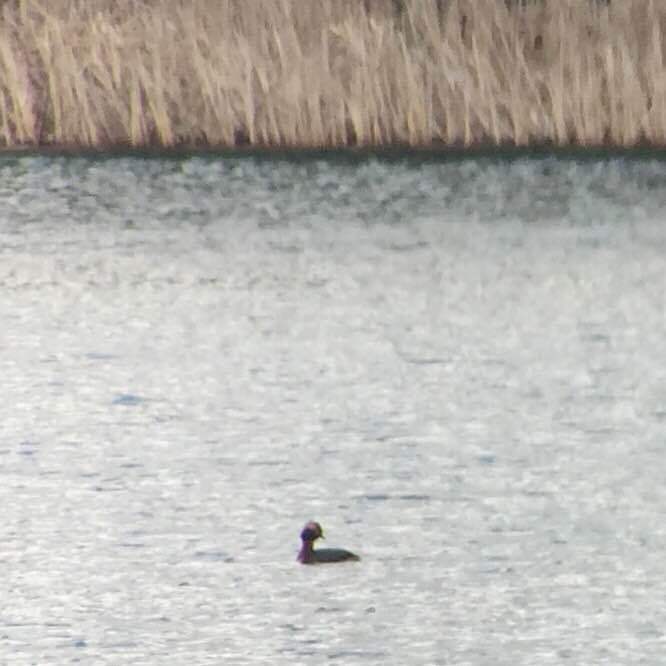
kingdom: Animalia
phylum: Chordata
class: Aves
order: Podicipediformes
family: Podicipedidae
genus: Podiceps
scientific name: Podiceps auritus
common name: Horned grebe
